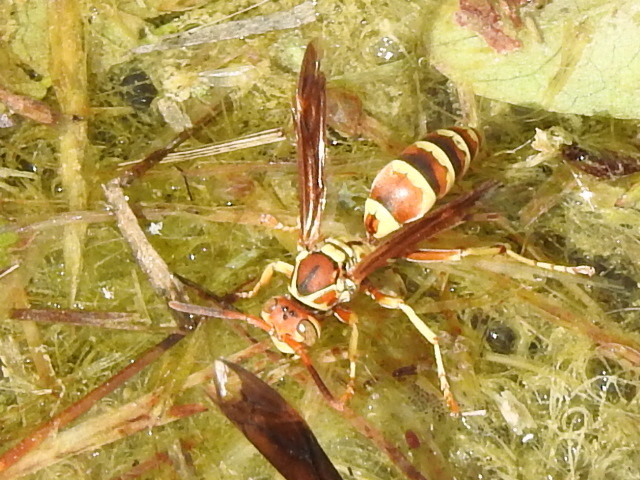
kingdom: Animalia
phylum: Arthropoda
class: Insecta
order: Hymenoptera
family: Eumenidae
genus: Polistes
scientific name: Polistes dorsalis
